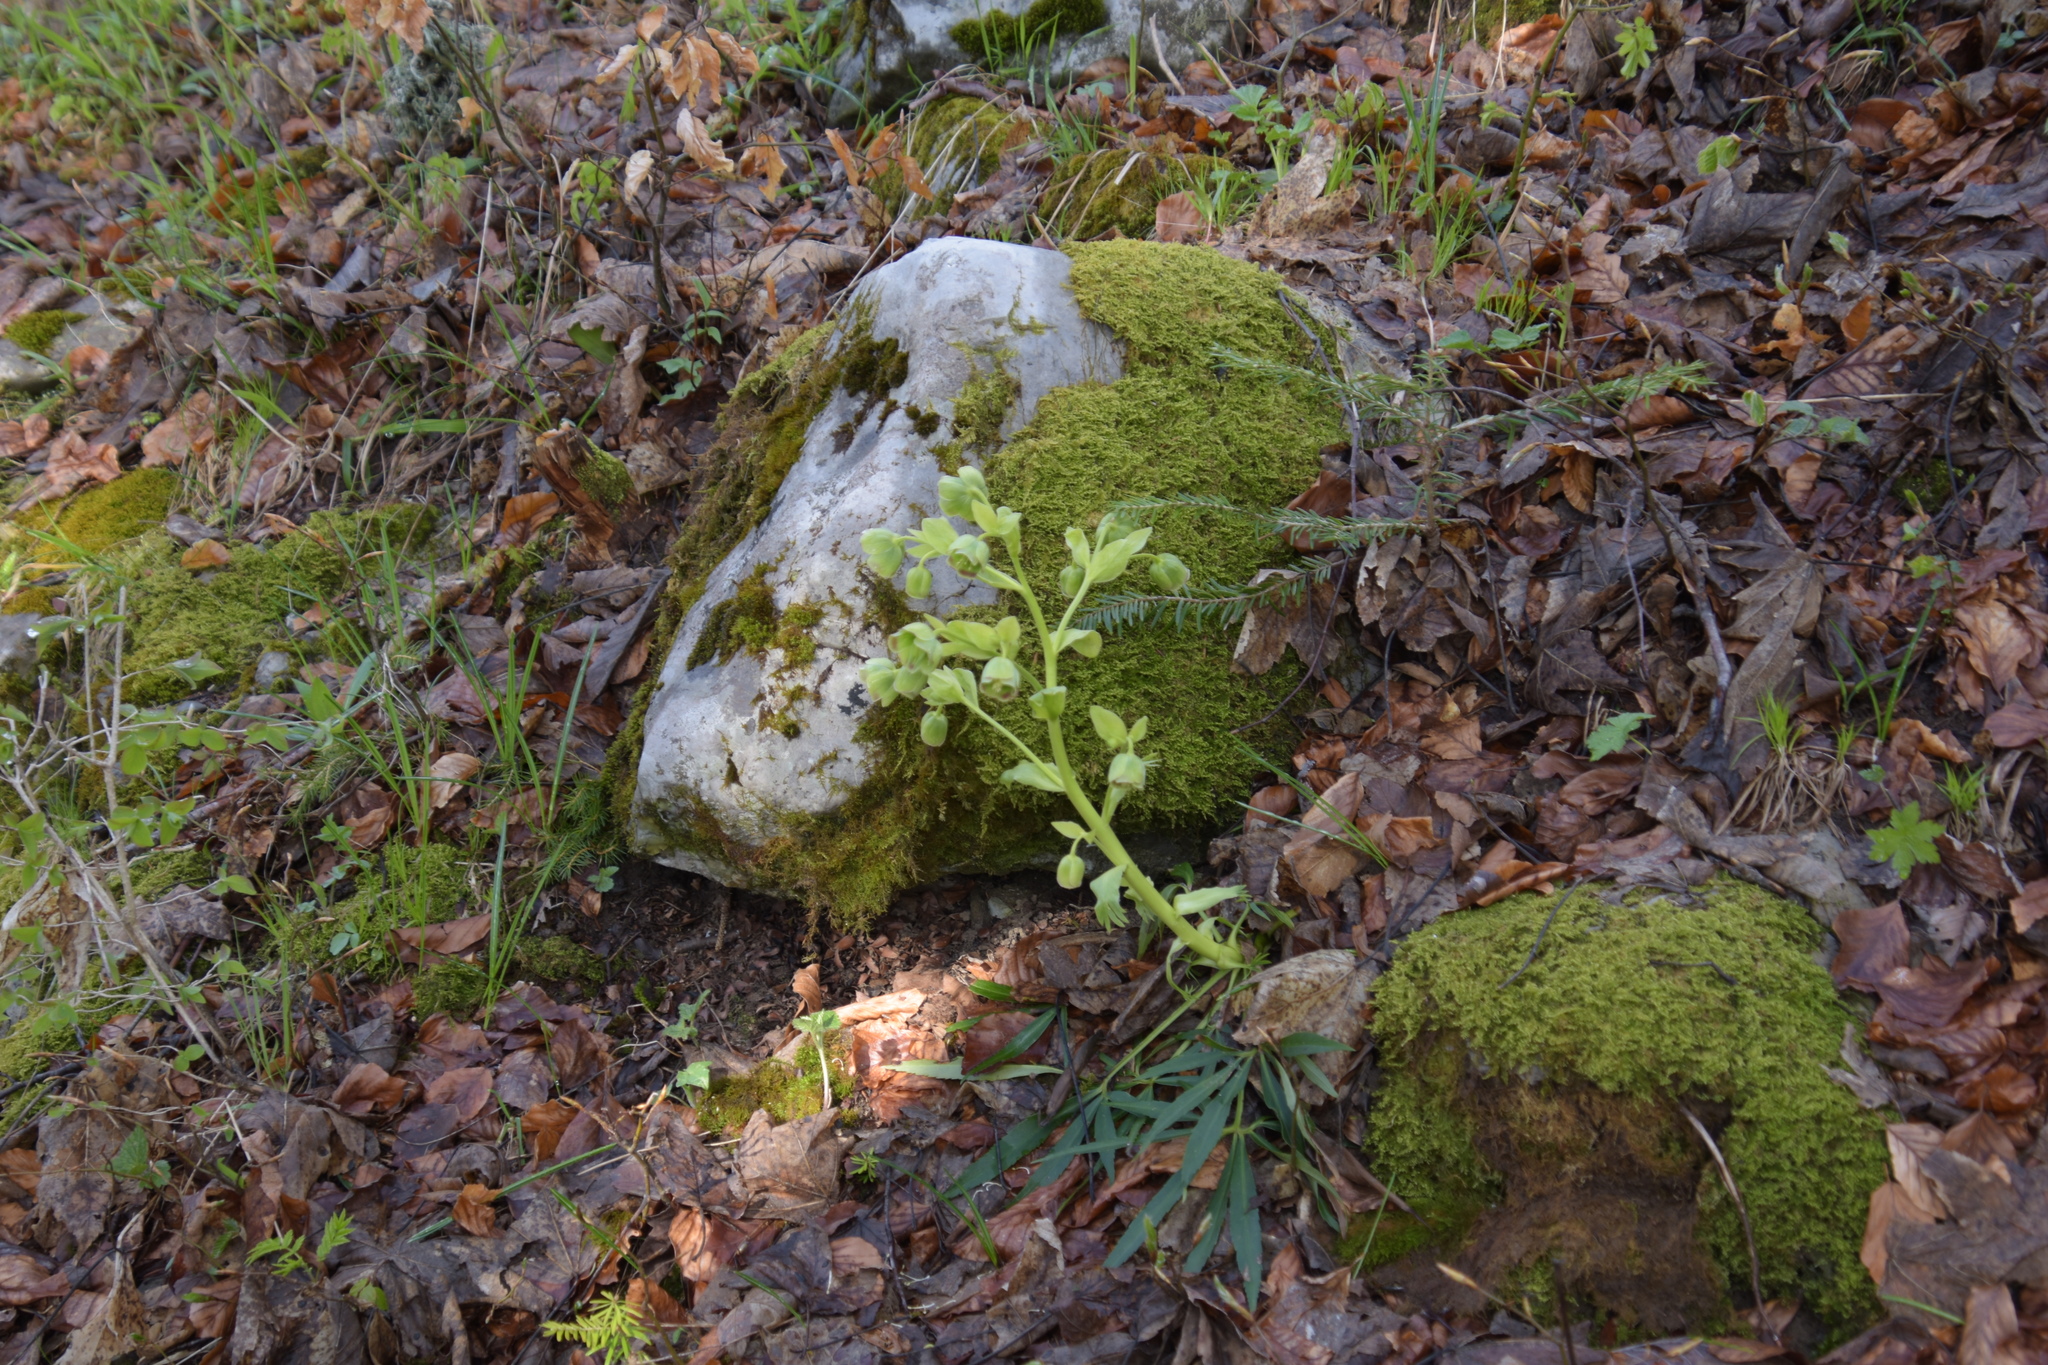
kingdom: Plantae
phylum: Tracheophyta
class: Magnoliopsida
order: Ranunculales
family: Ranunculaceae
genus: Helleborus
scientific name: Helleborus foetidus
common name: Stinking hellebore
